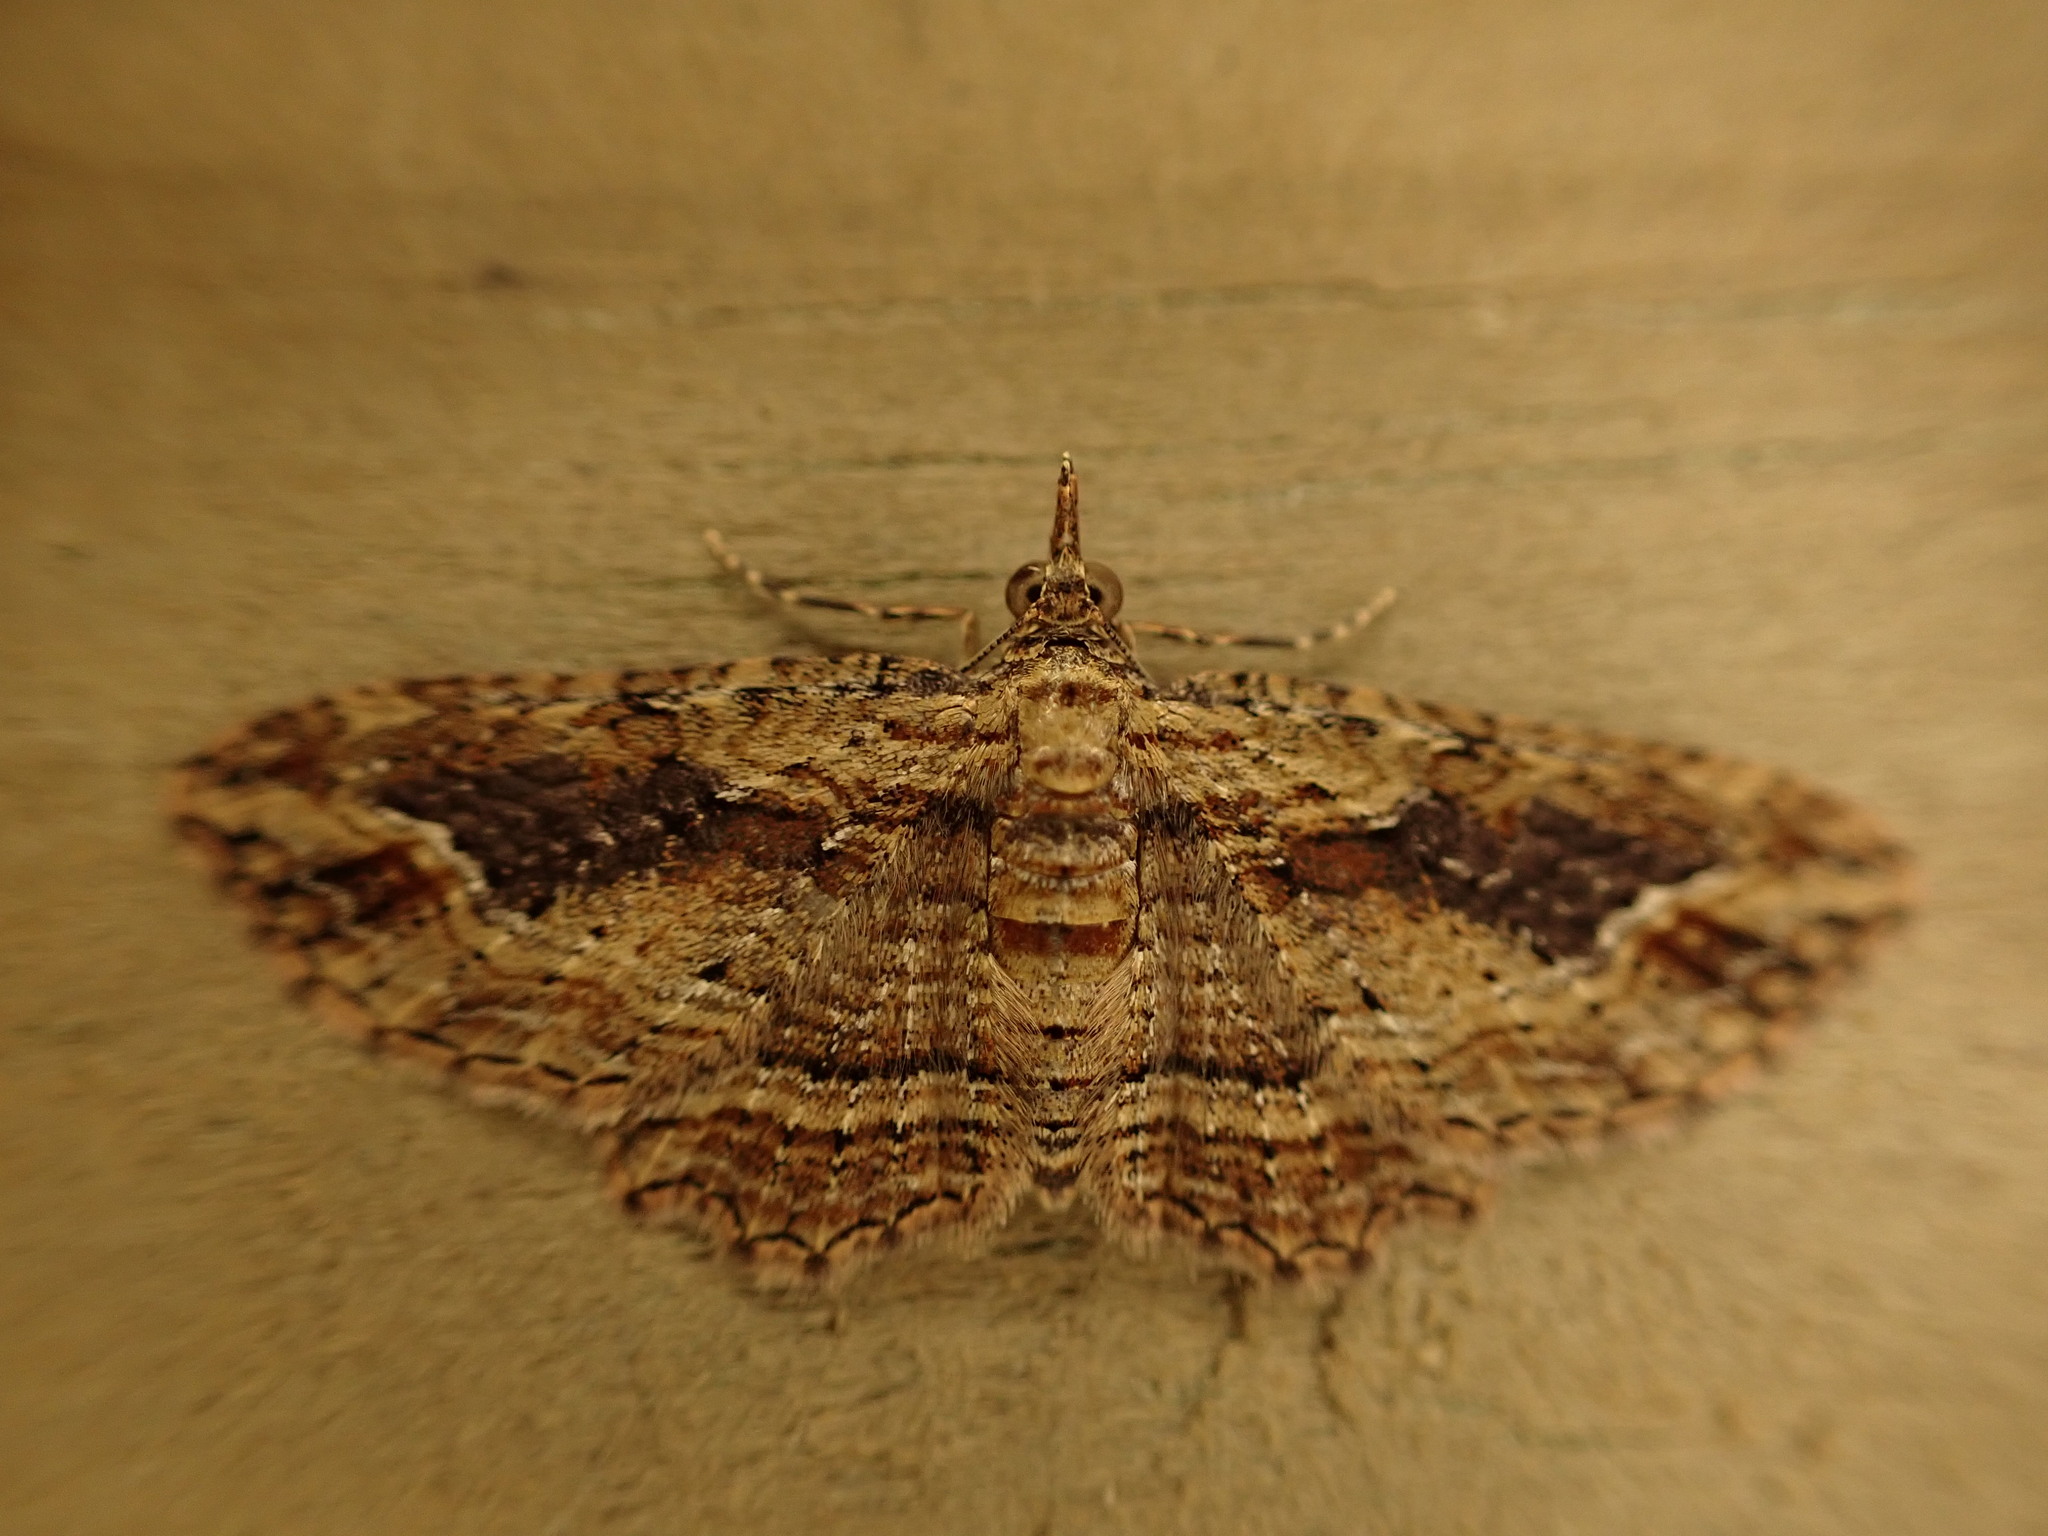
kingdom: Animalia
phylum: Arthropoda
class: Insecta
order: Lepidoptera
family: Geometridae
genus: Chloroclystis
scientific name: Chloroclystis filata
